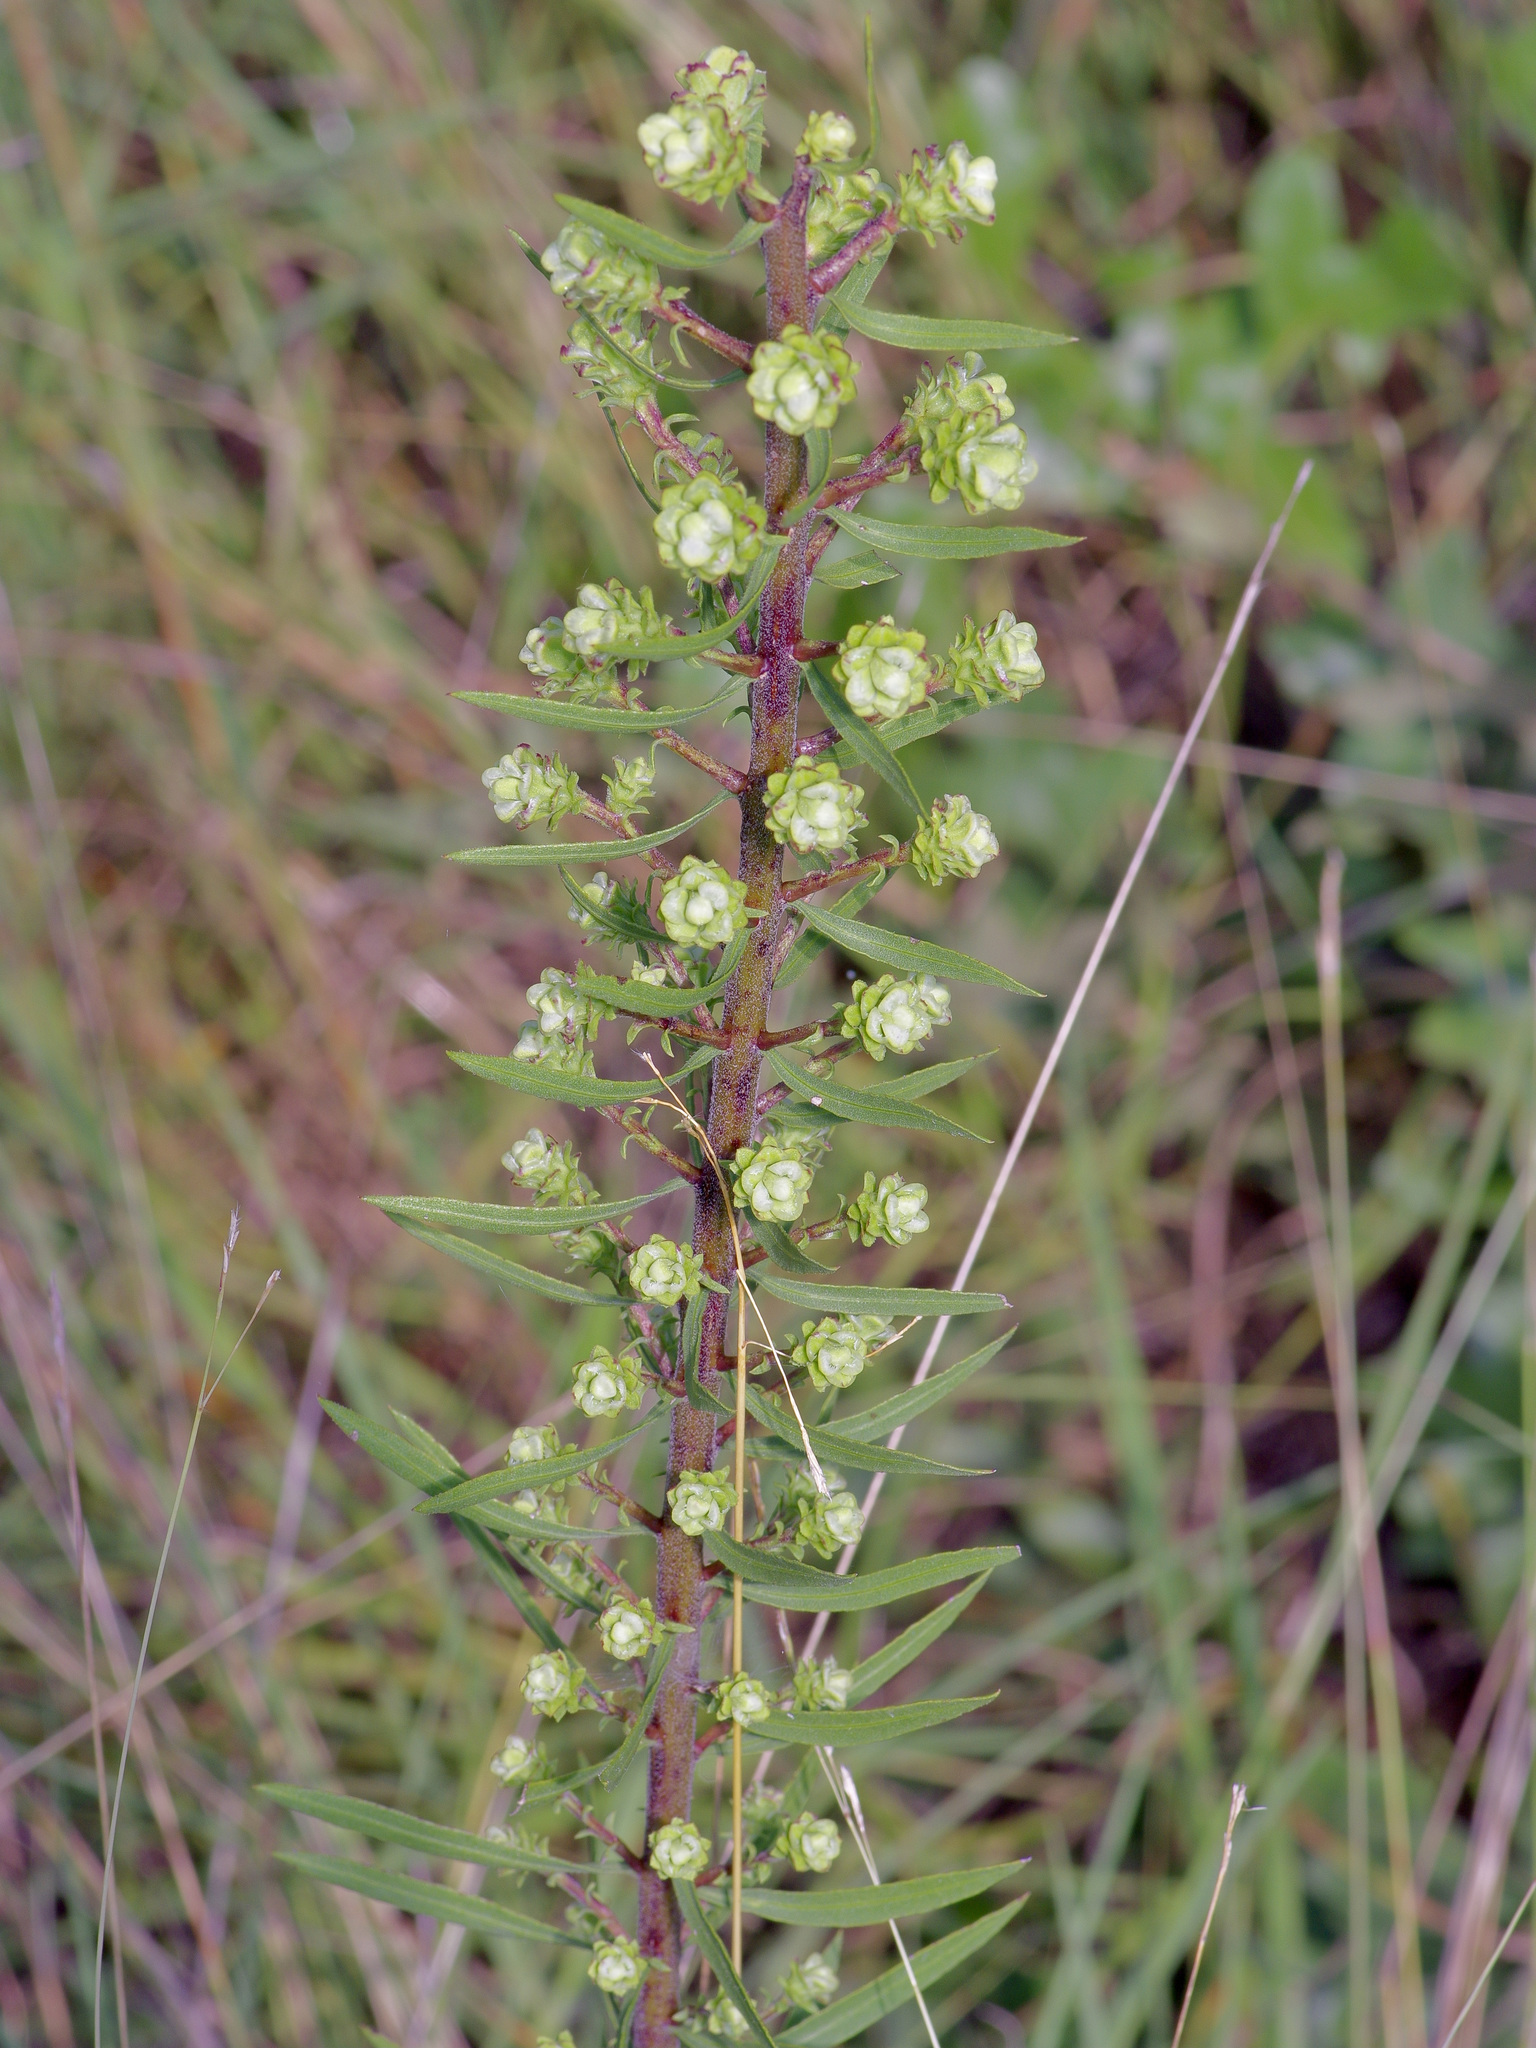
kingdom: Plantae
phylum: Tracheophyta
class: Magnoliopsida
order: Asterales
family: Asteraceae
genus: Liatris
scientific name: Liatris aspera
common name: Lacerate blazing-star
